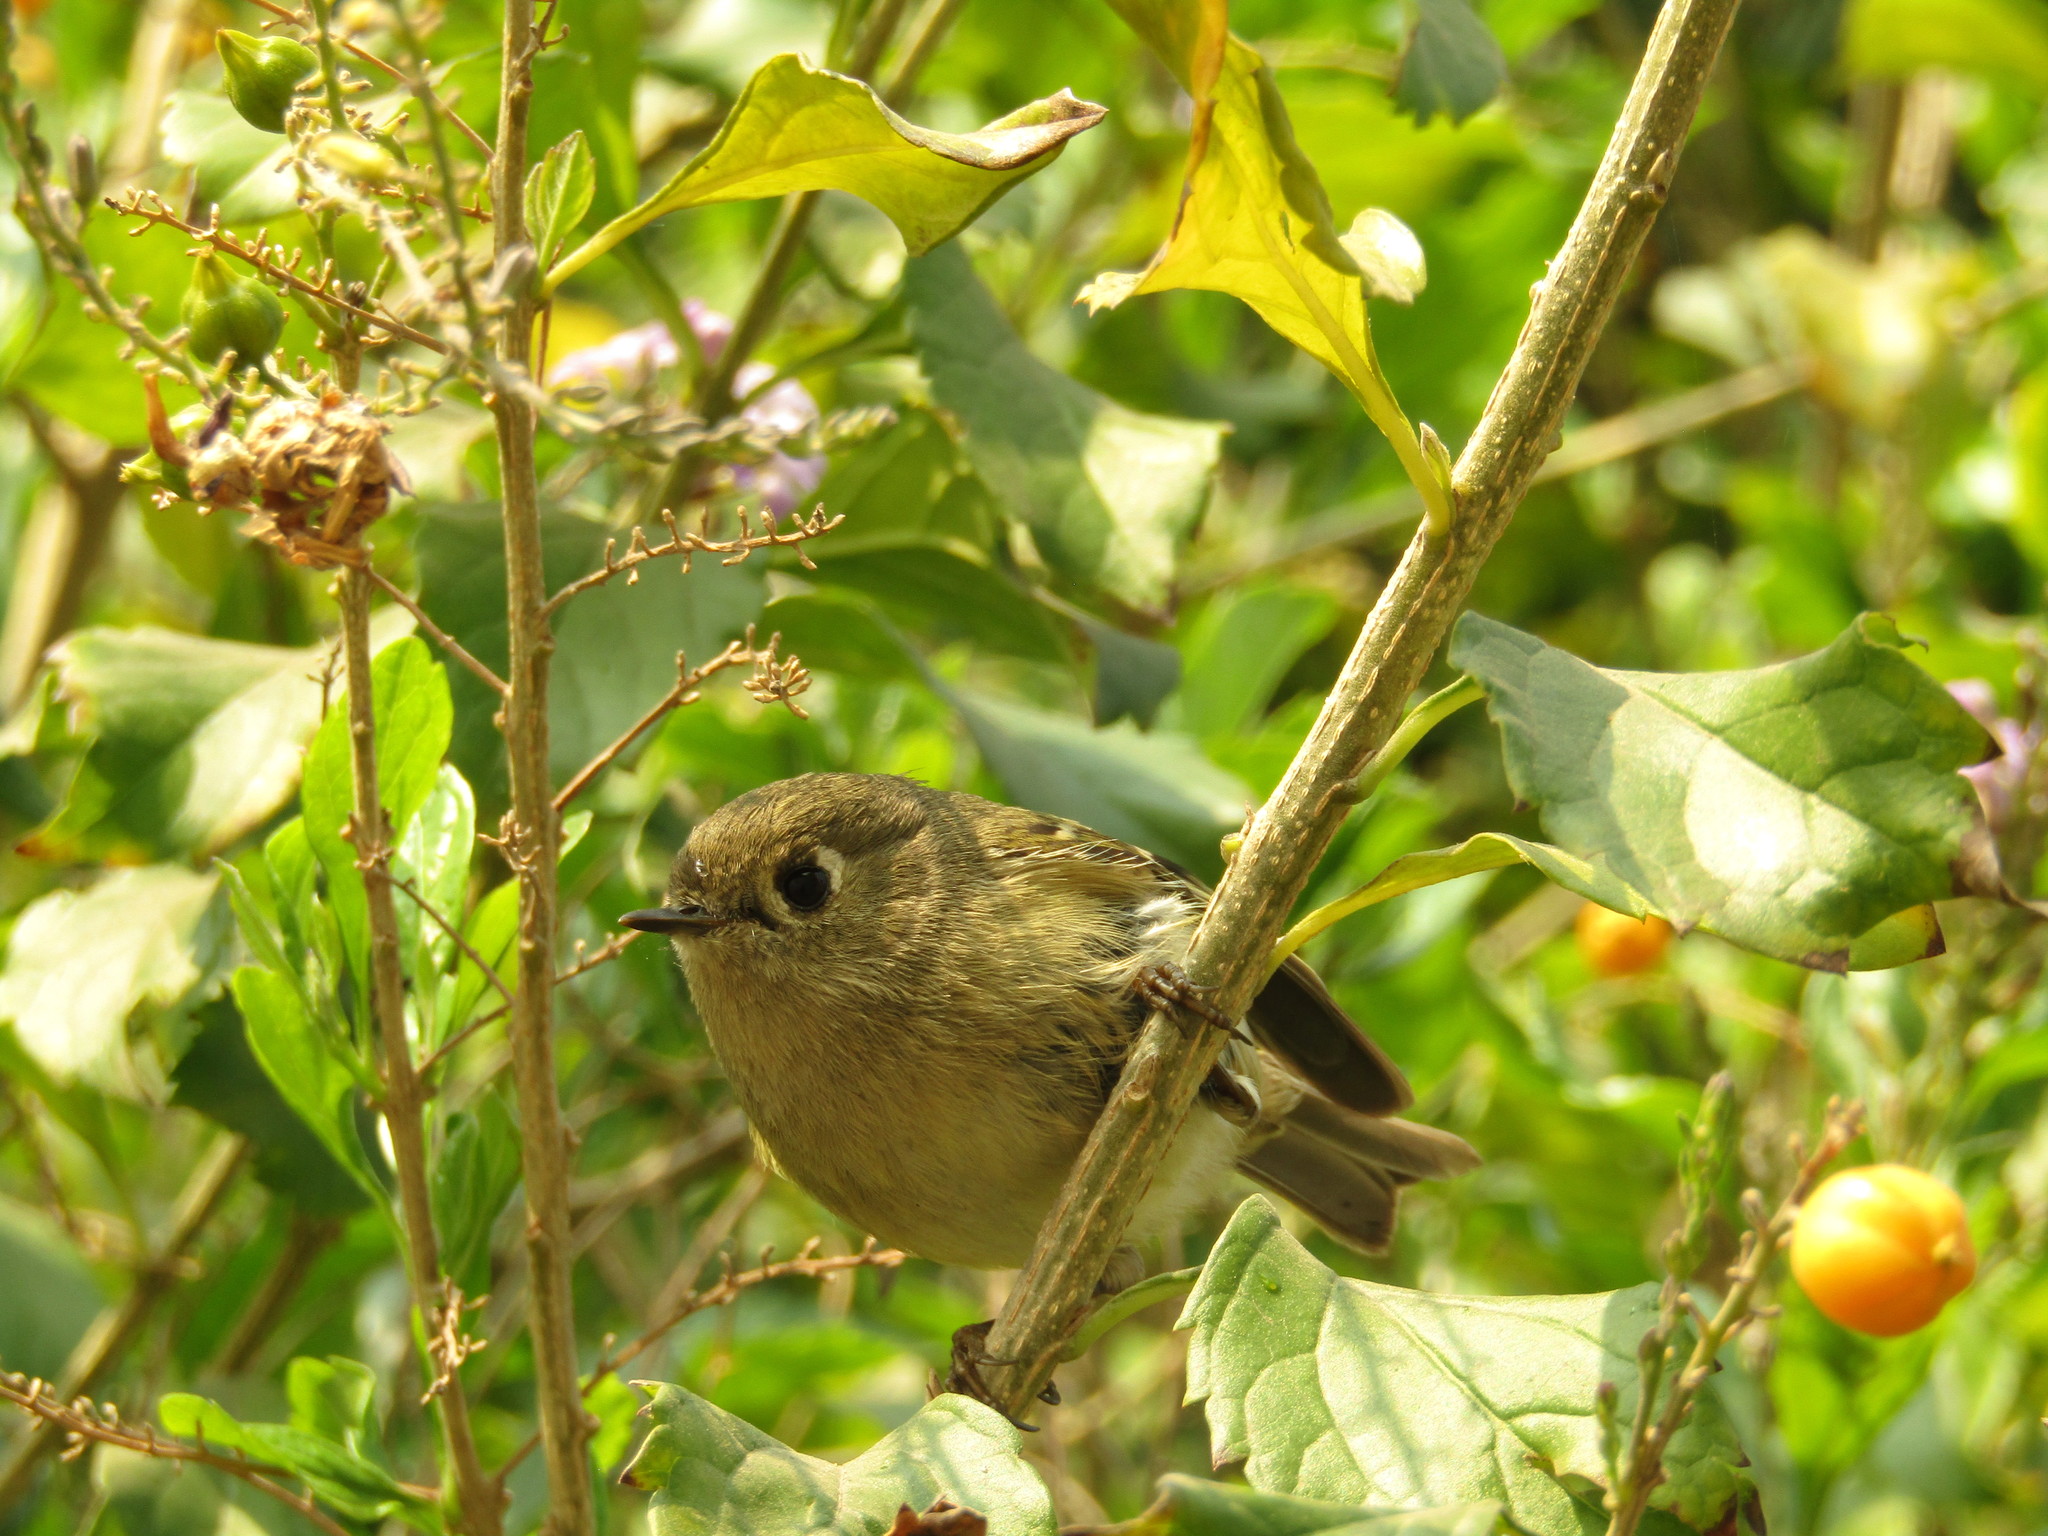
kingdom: Animalia
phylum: Chordata
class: Aves
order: Passeriformes
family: Regulidae
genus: Regulus
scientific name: Regulus calendula
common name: Ruby-crowned kinglet
